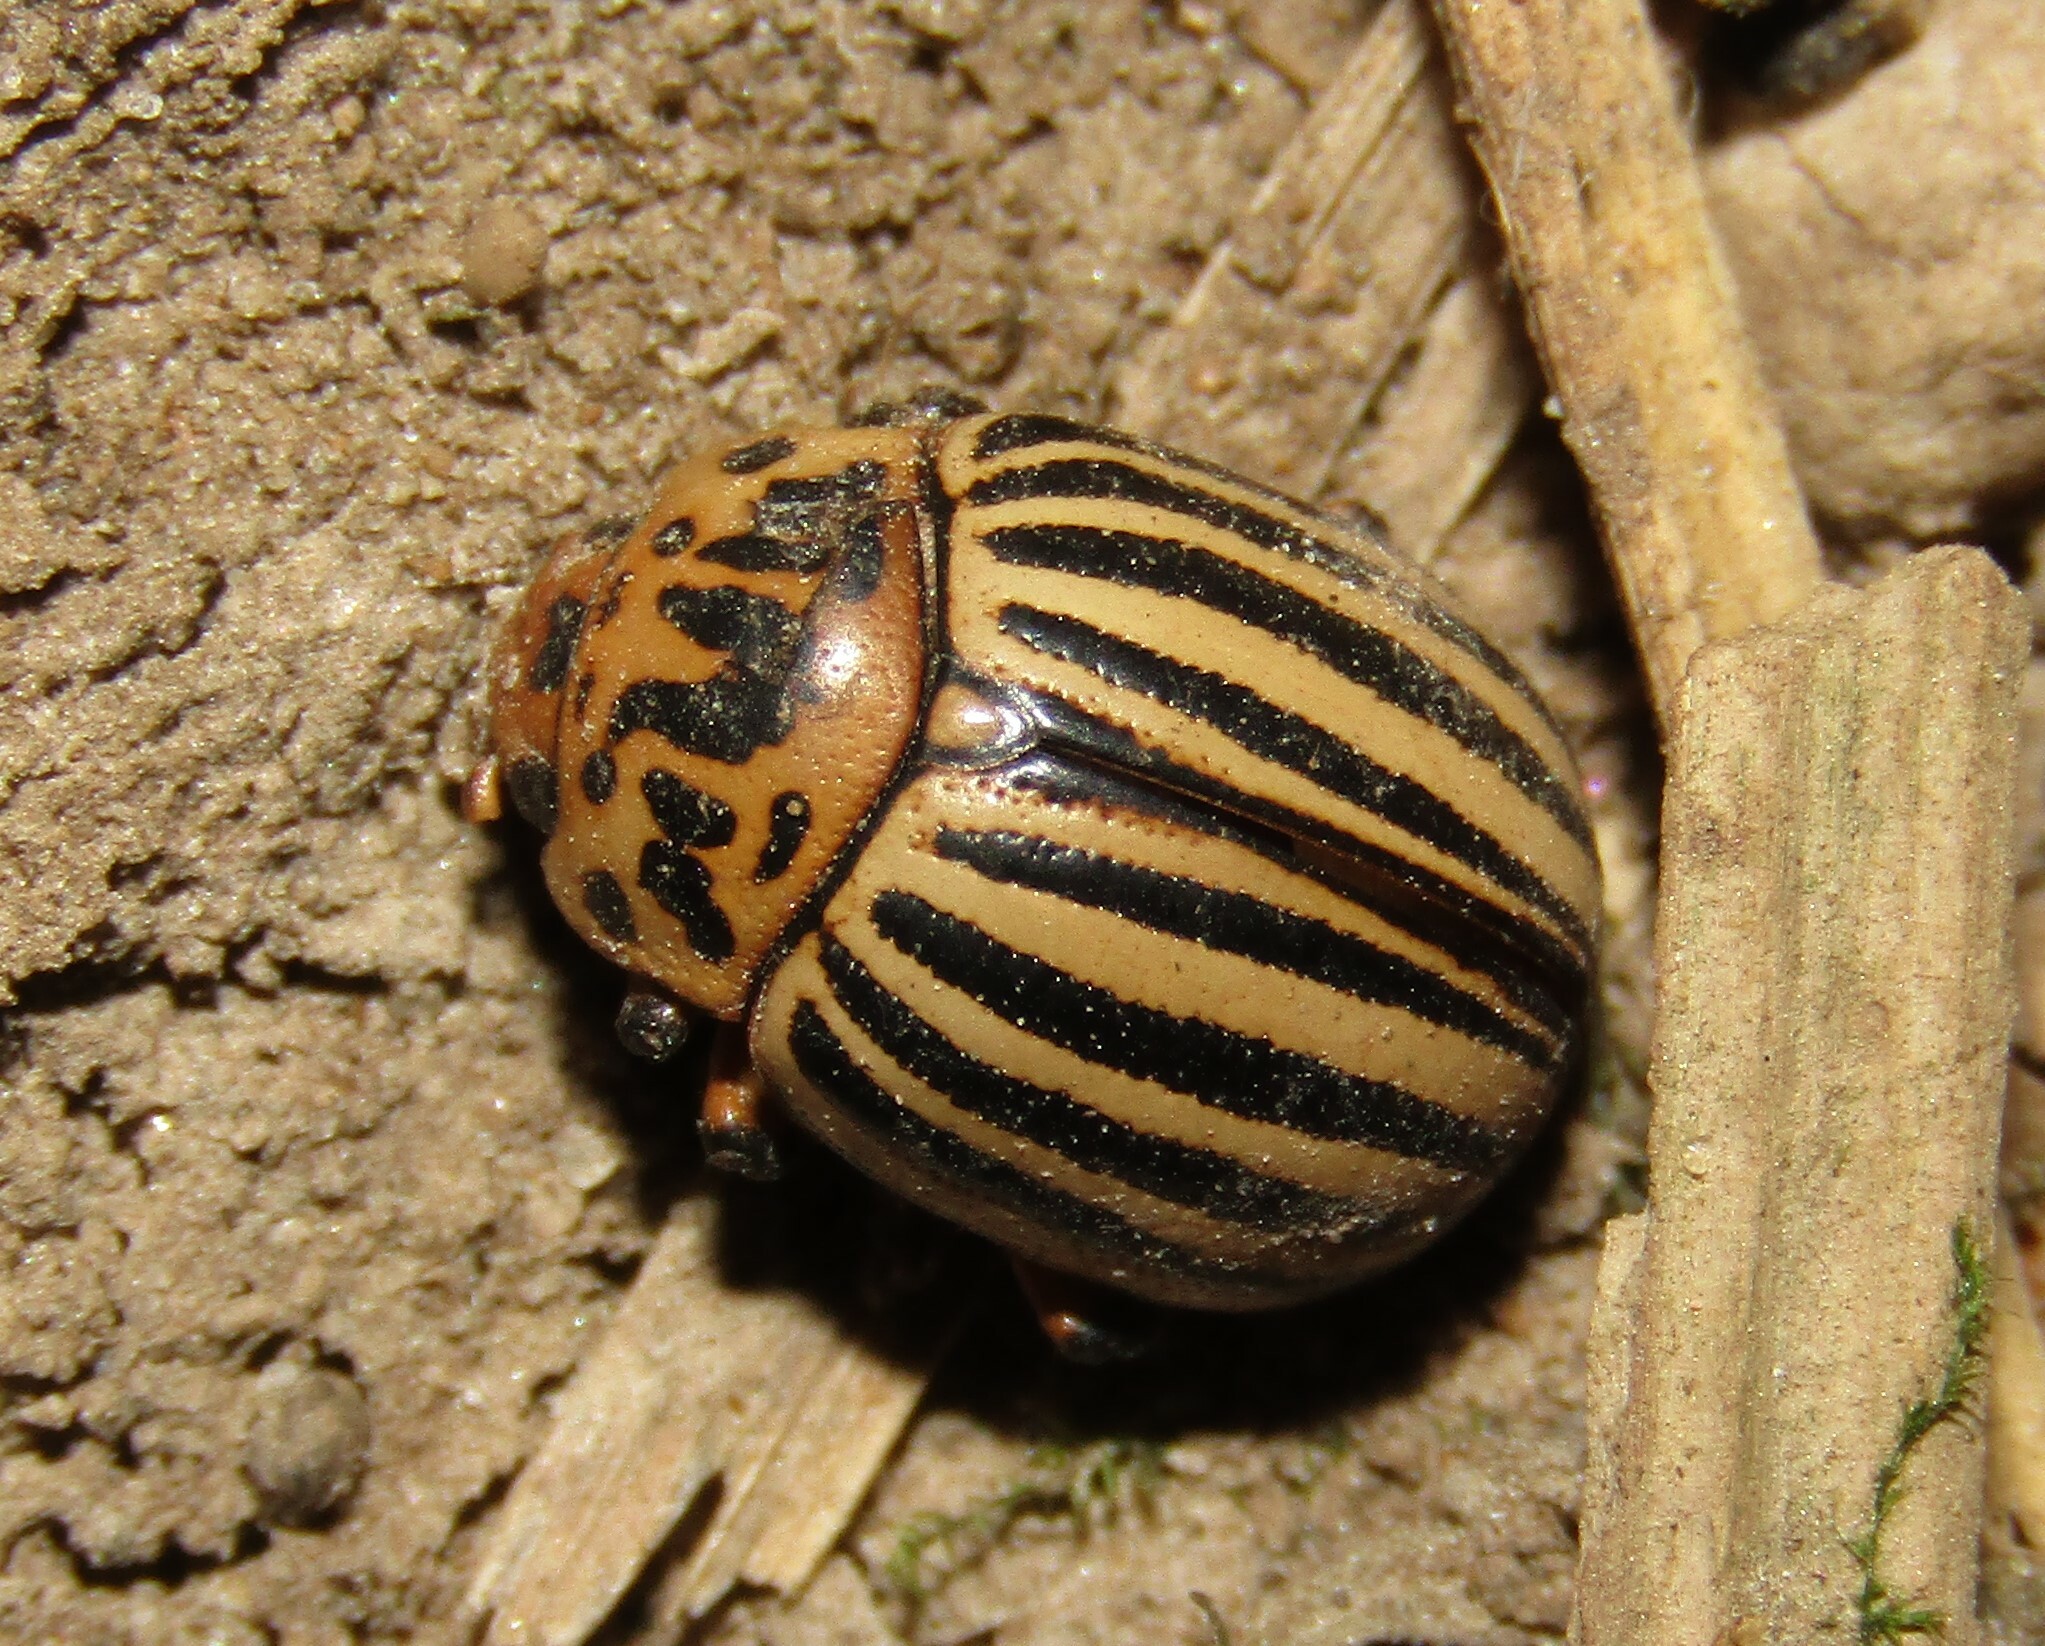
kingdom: Animalia
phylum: Arthropoda
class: Insecta
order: Coleoptera
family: Chrysomelidae
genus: Leptinotarsa
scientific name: Leptinotarsa decemlineata
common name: Colorado potato beetle
